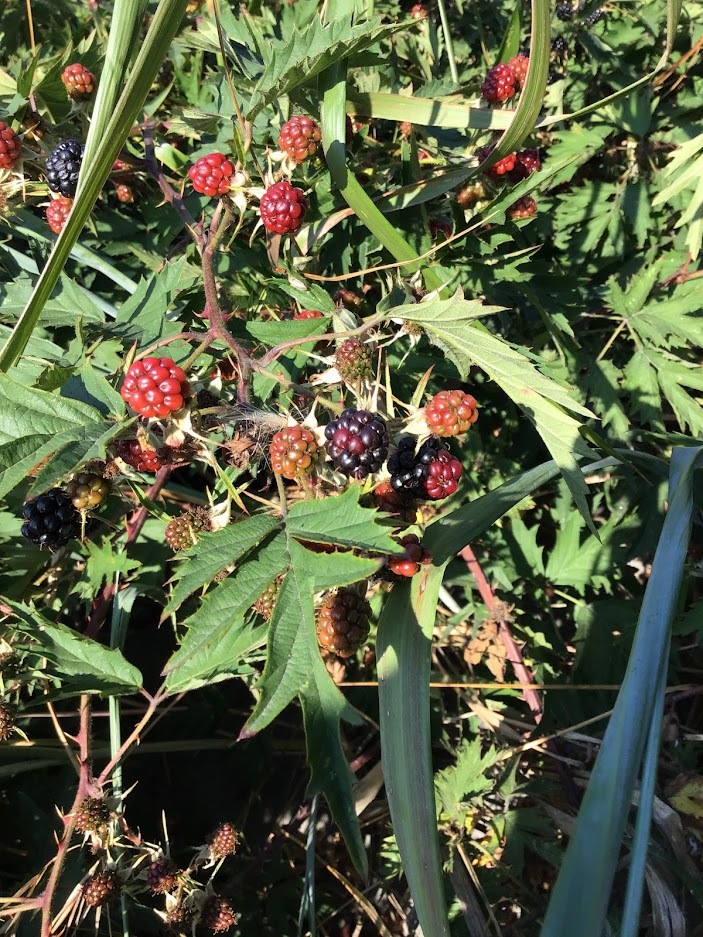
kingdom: Plantae
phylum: Tracheophyta
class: Magnoliopsida
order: Rosales
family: Rosaceae
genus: Rubus
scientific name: Rubus laciniatus
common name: Evergreen blackberry
